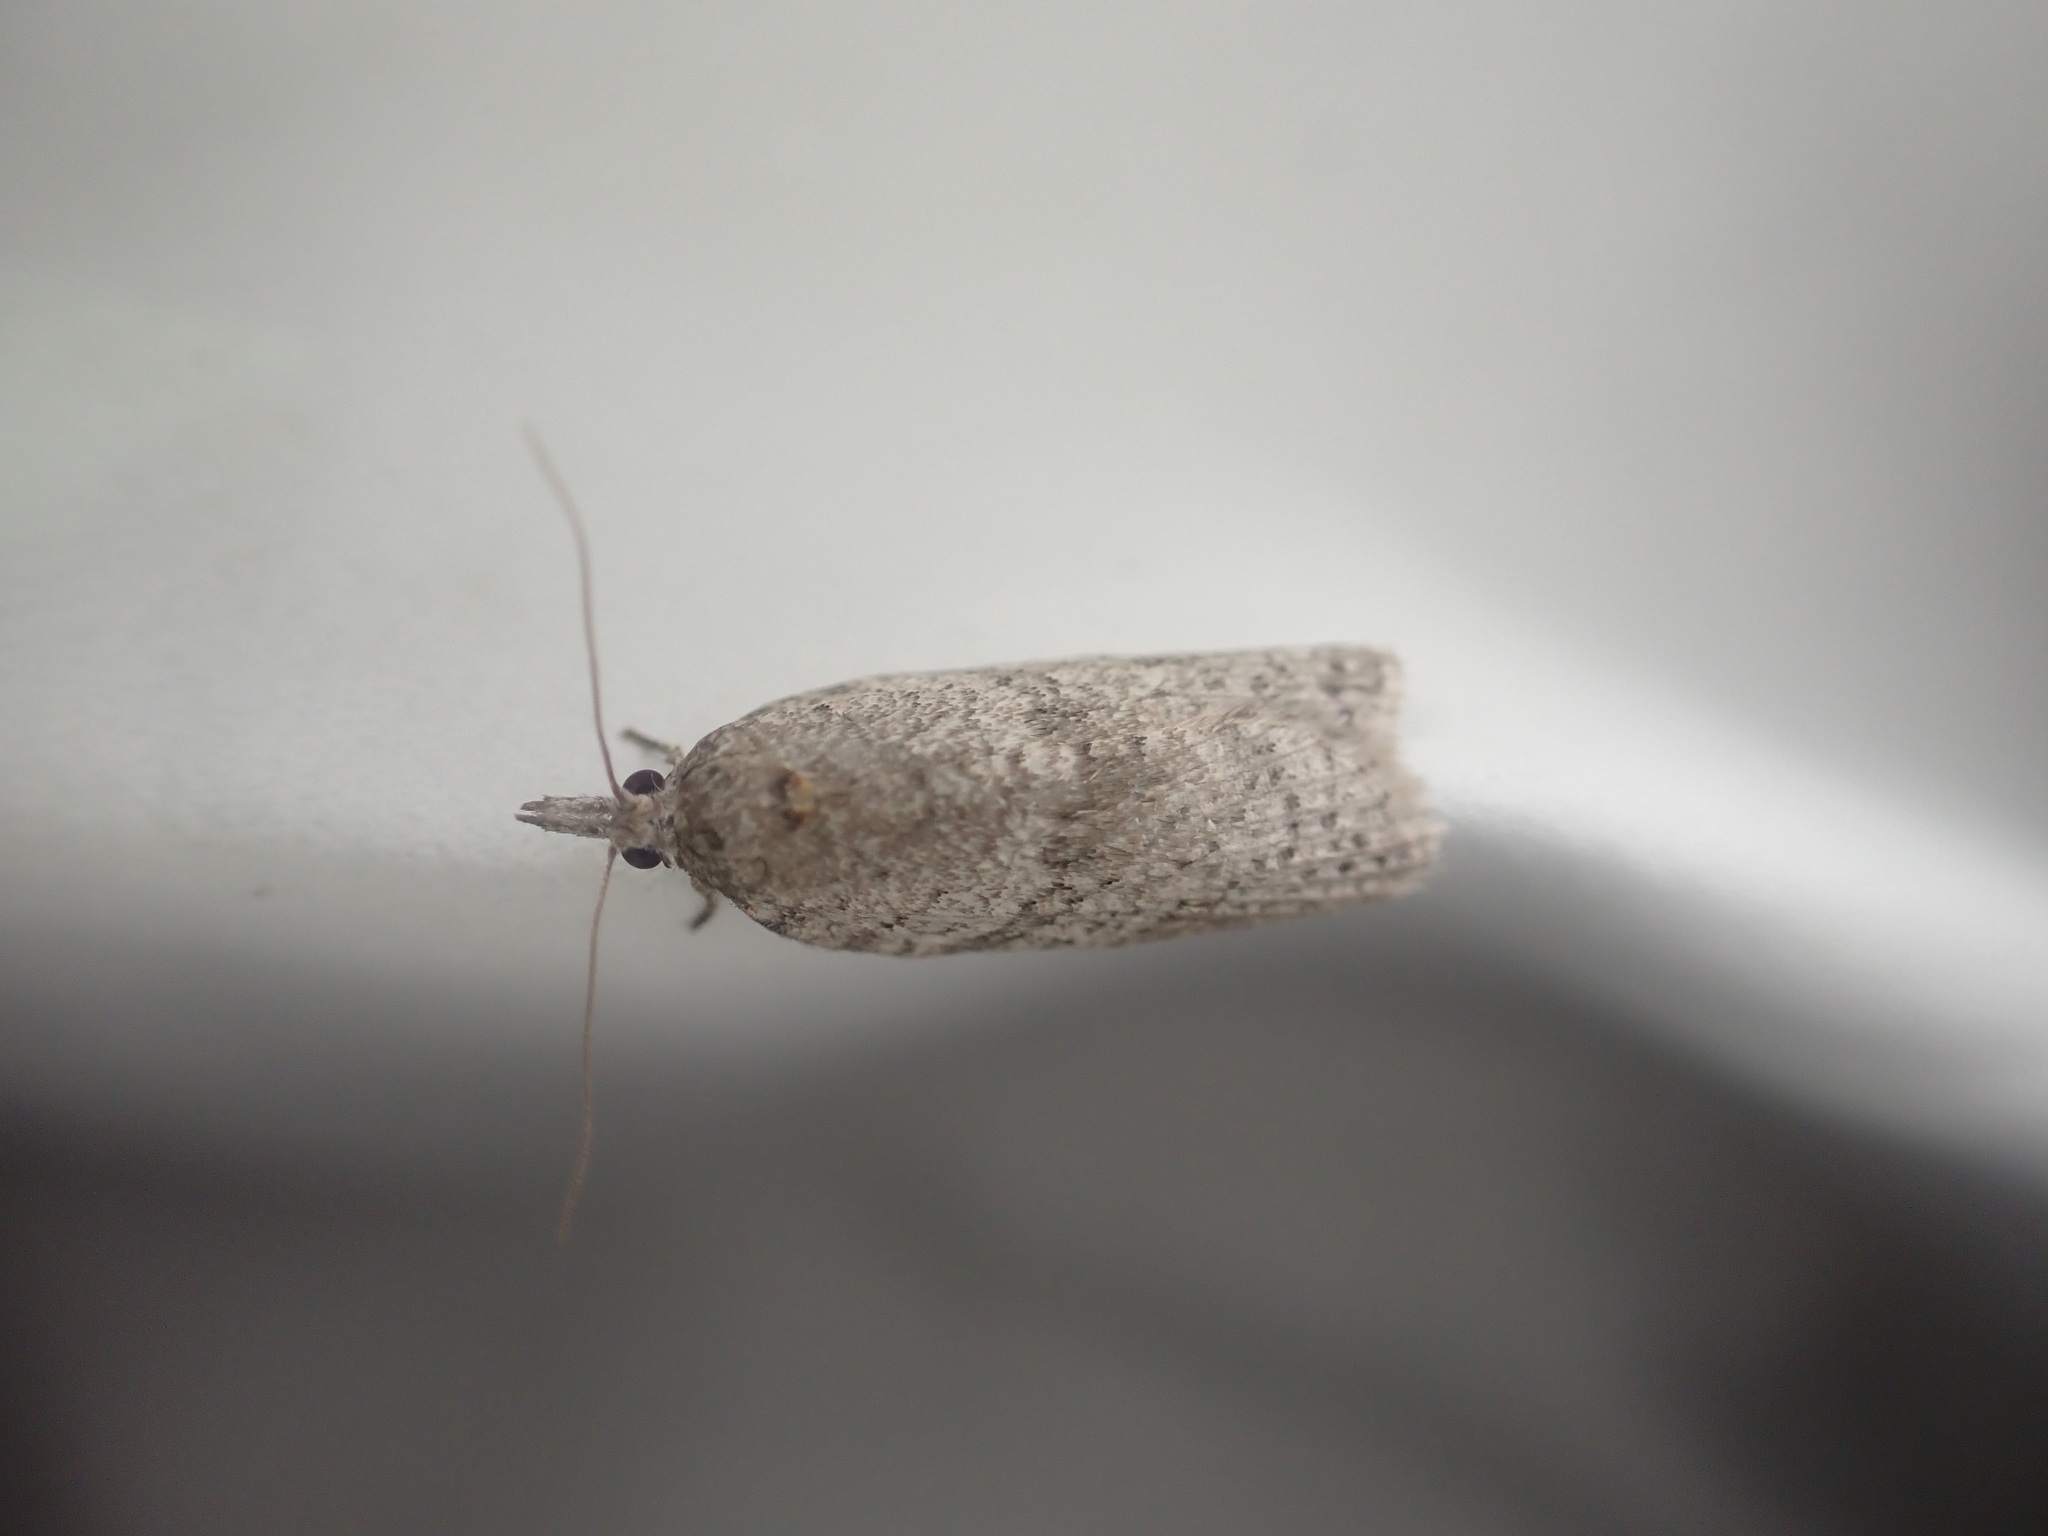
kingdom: Animalia
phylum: Arthropoda
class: Insecta
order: Lepidoptera
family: Tortricidae
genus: Isotenes
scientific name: Isotenes miserana
